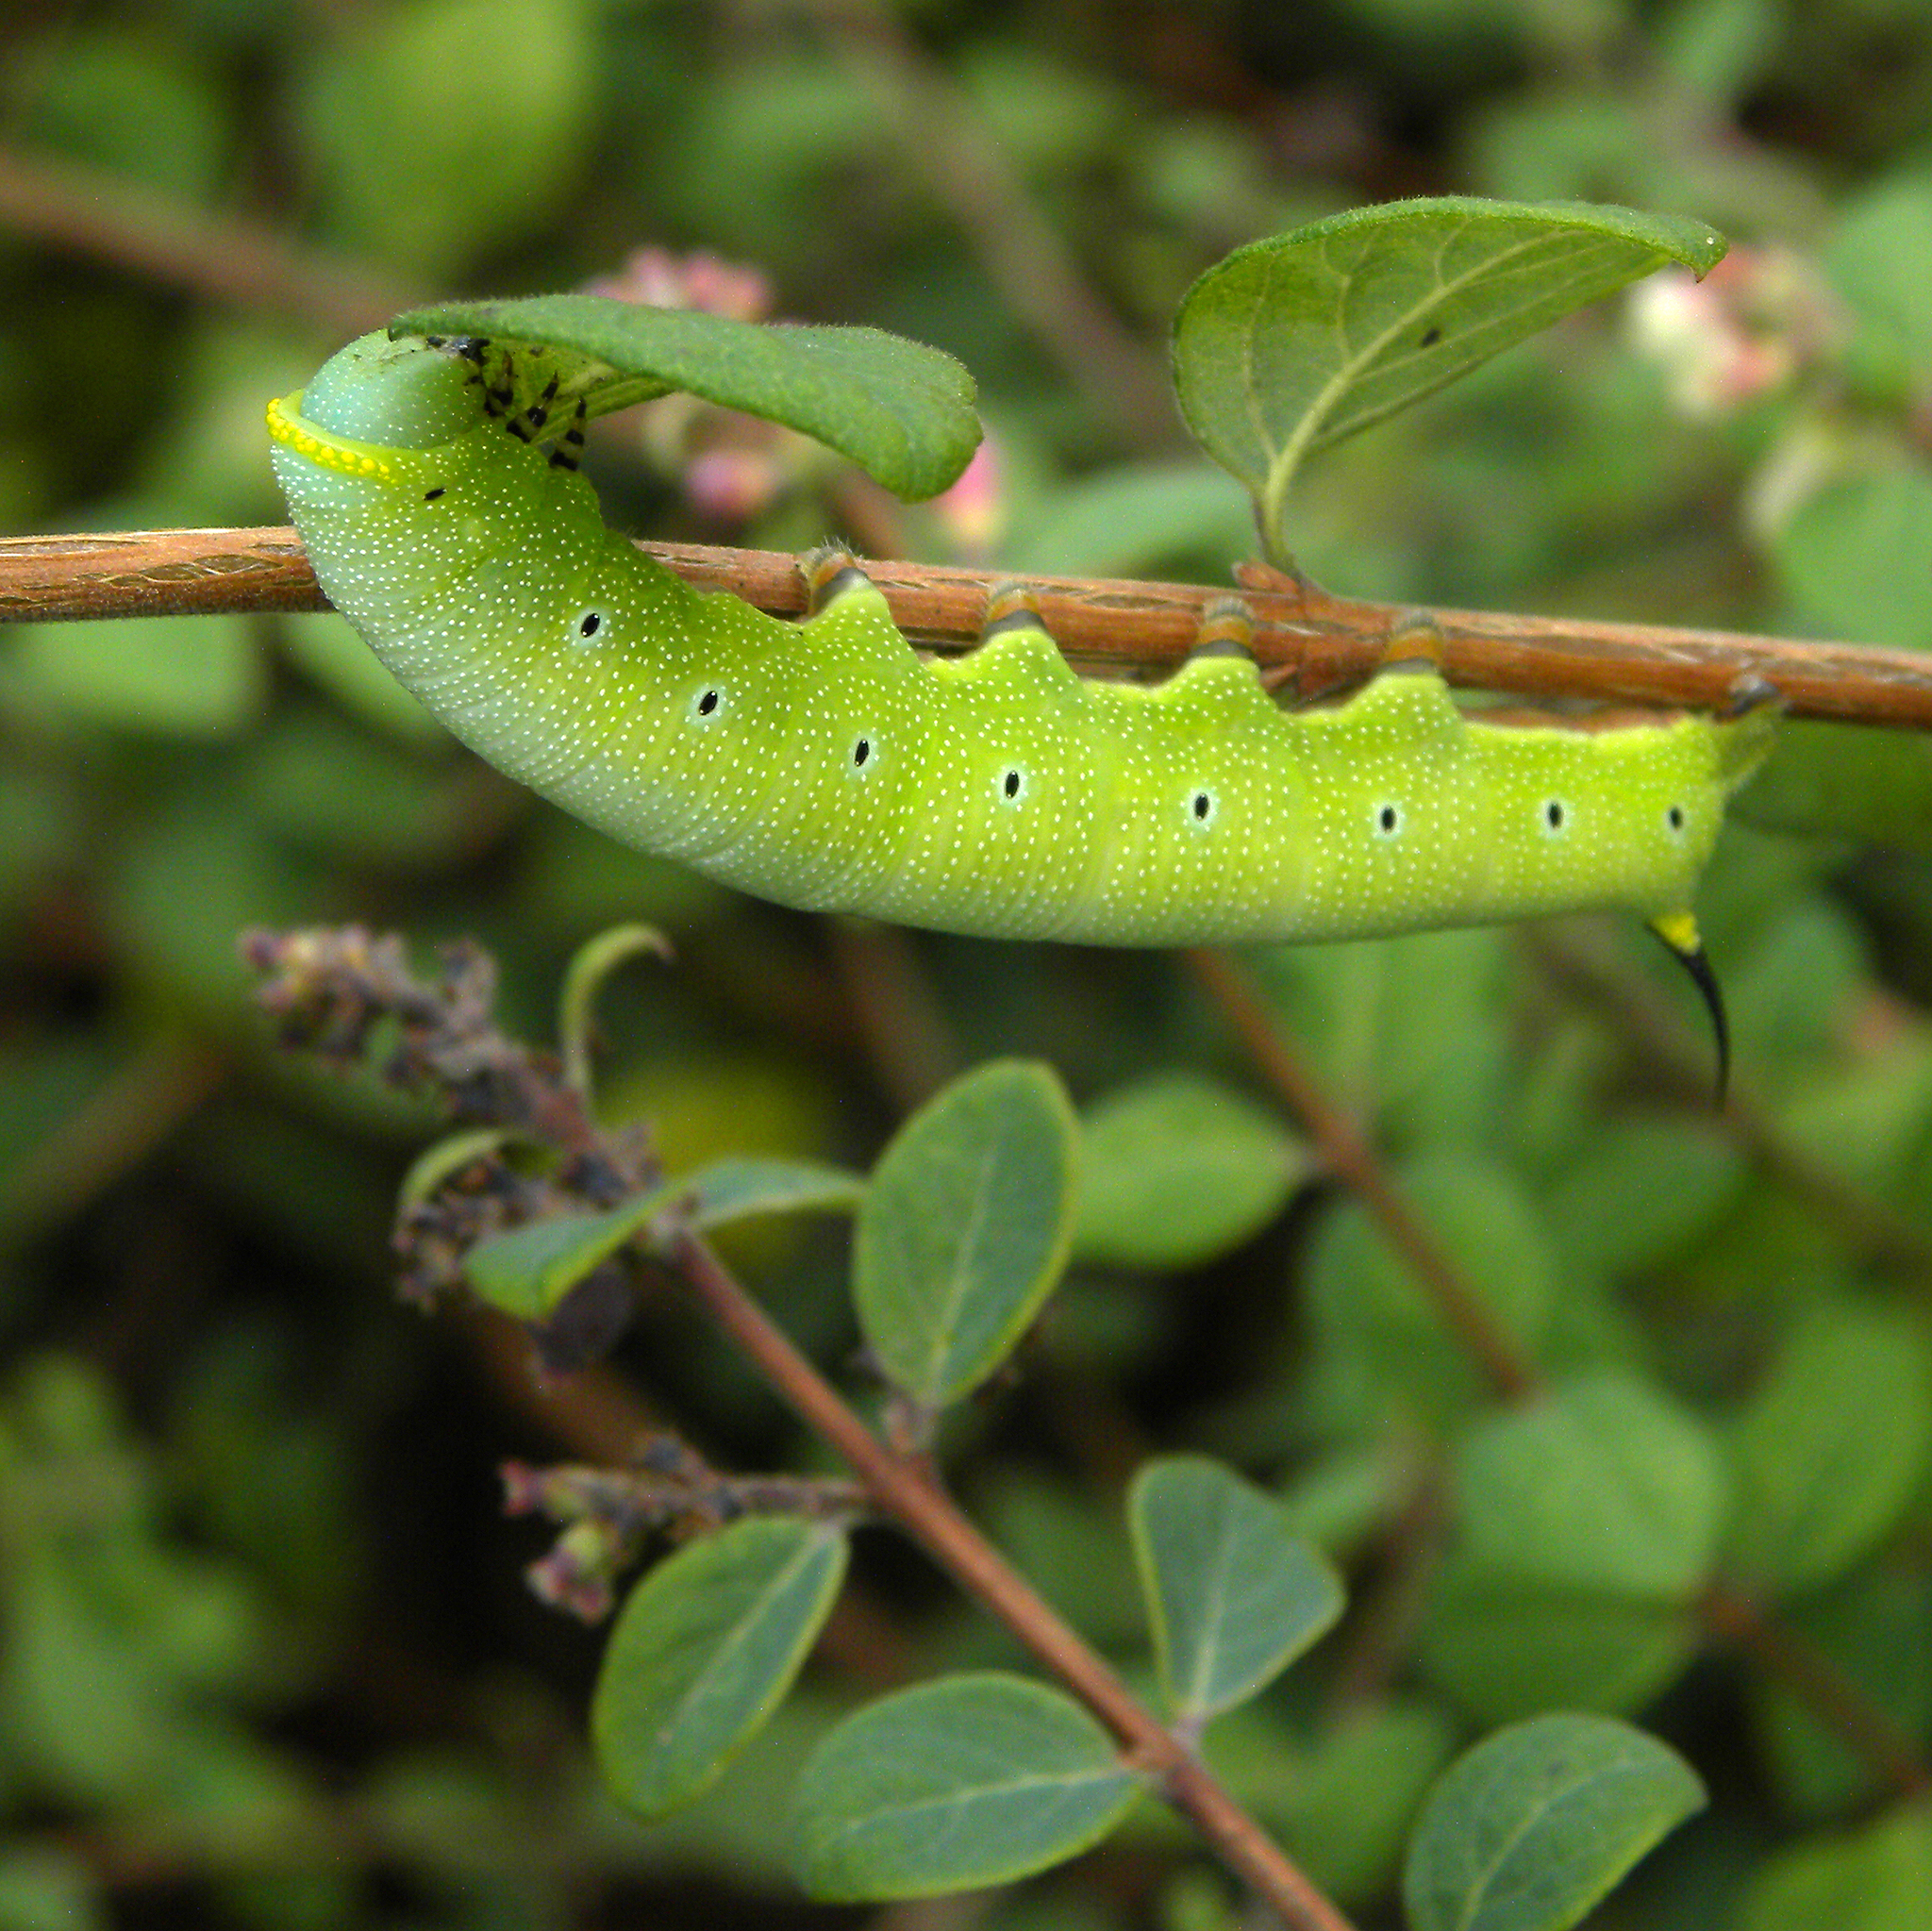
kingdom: Animalia
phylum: Arthropoda
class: Insecta
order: Lepidoptera
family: Sphingidae
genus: Hemaris
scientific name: Hemaris diffinis
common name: Bumblebee moth
